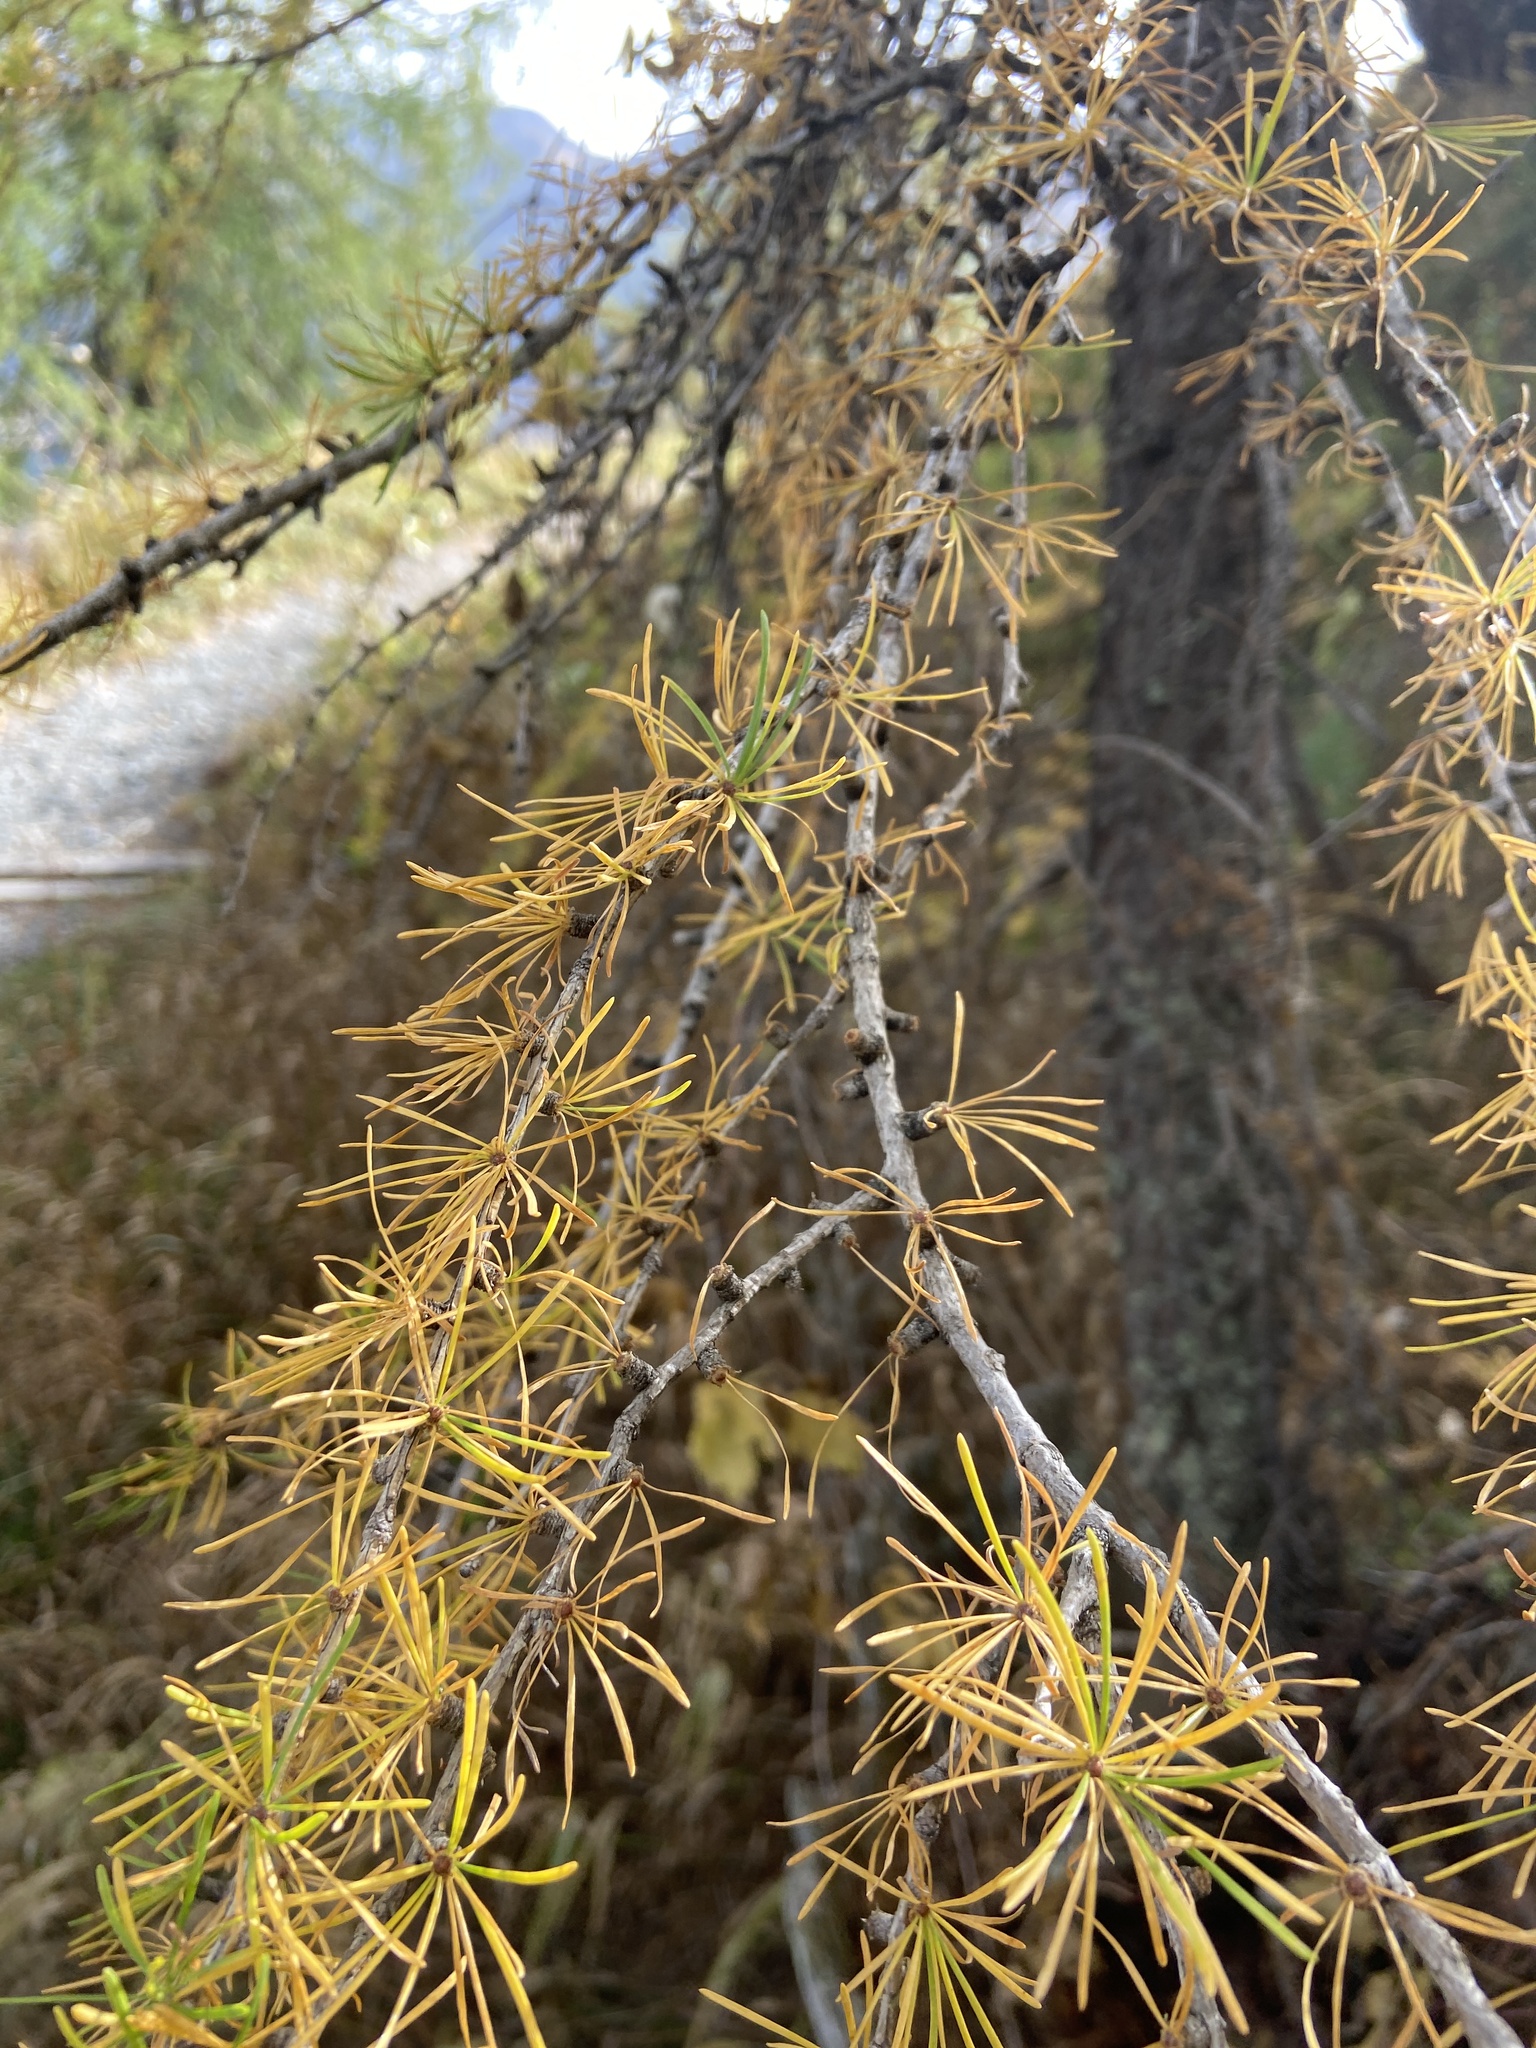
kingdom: Plantae
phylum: Tracheophyta
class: Pinopsida
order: Pinales
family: Pinaceae
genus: Larix
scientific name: Larix decidua
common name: European larch
